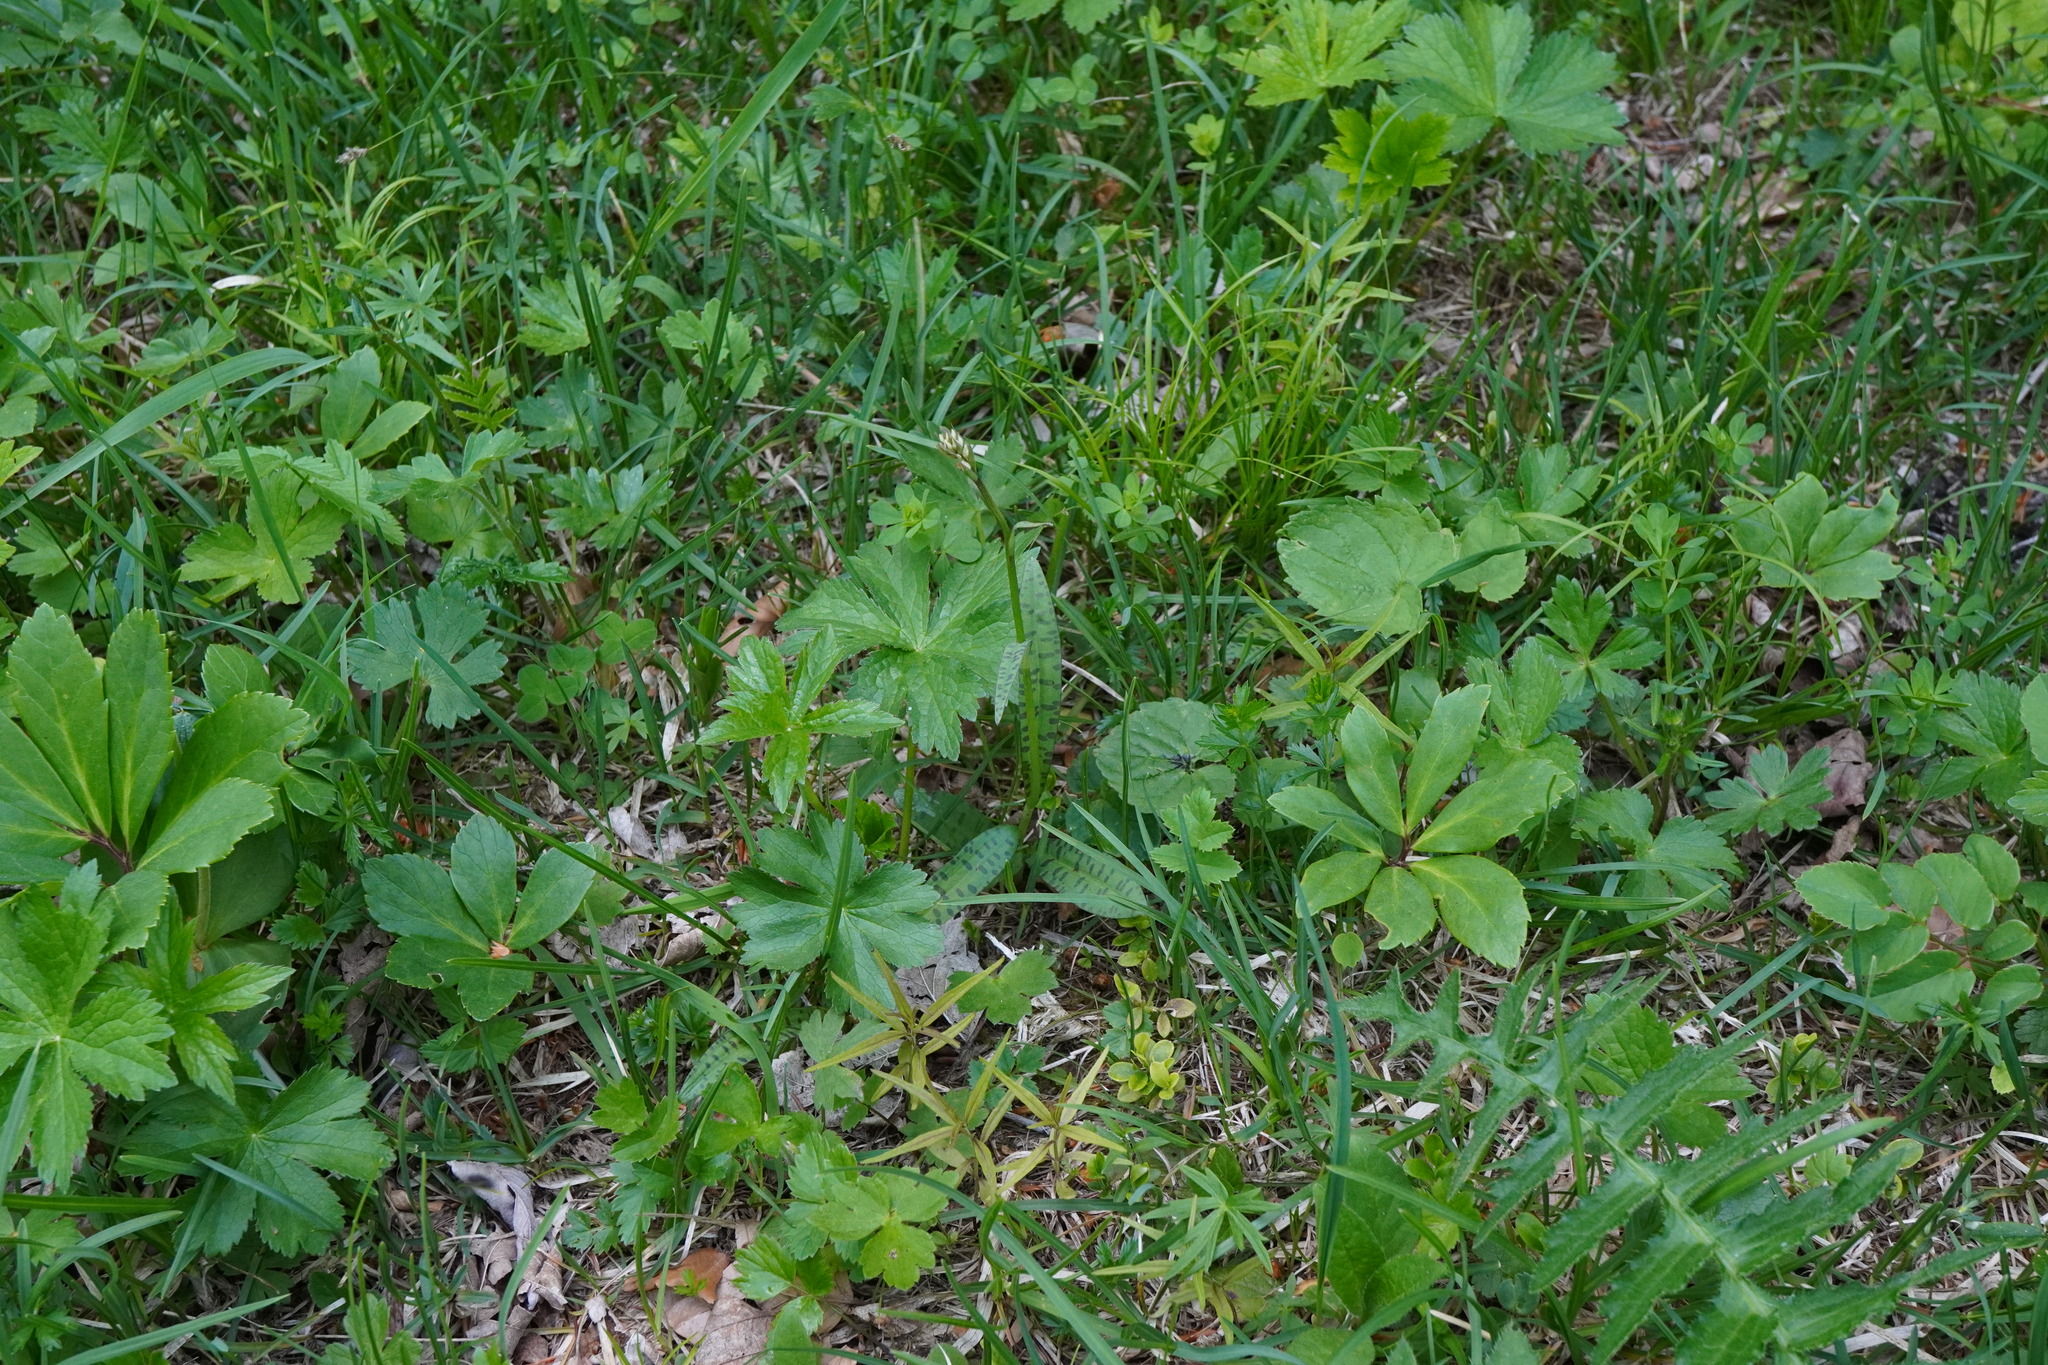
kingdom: Plantae
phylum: Tracheophyta
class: Liliopsida
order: Asparagales
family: Orchidaceae
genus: Dactylorhiza
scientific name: Dactylorhiza maculata
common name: Heath spotted-orchid
